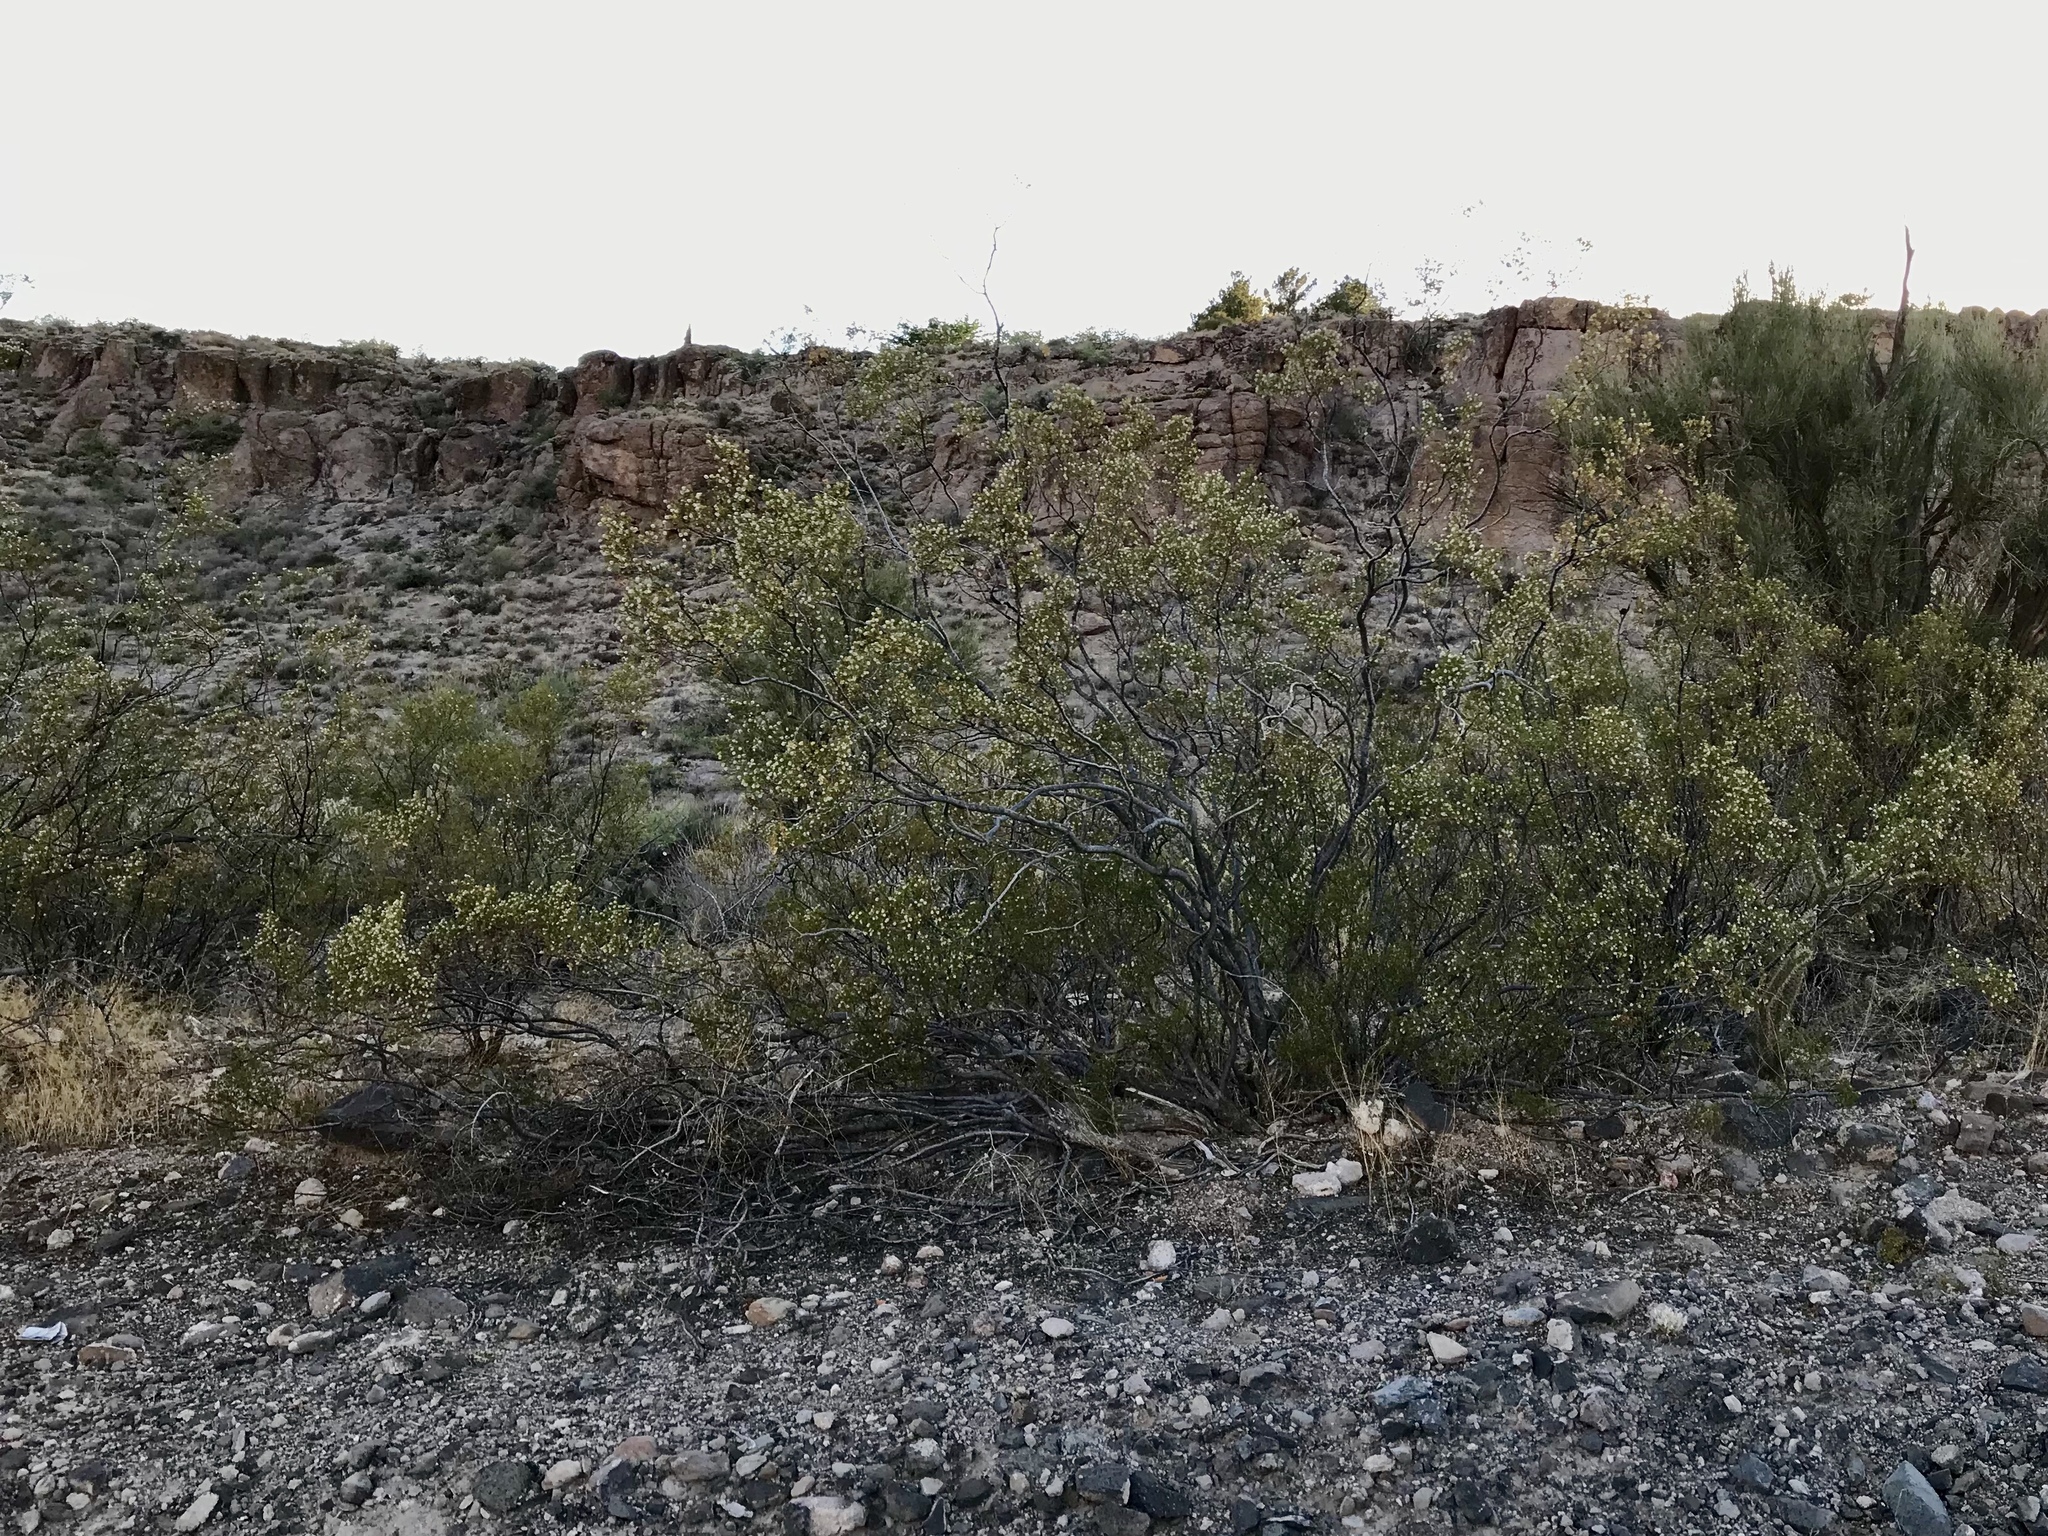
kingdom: Plantae
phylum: Tracheophyta
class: Magnoliopsida
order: Zygophyllales
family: Zygophyllaceae
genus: Larrea
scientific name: Larrea tridentata
